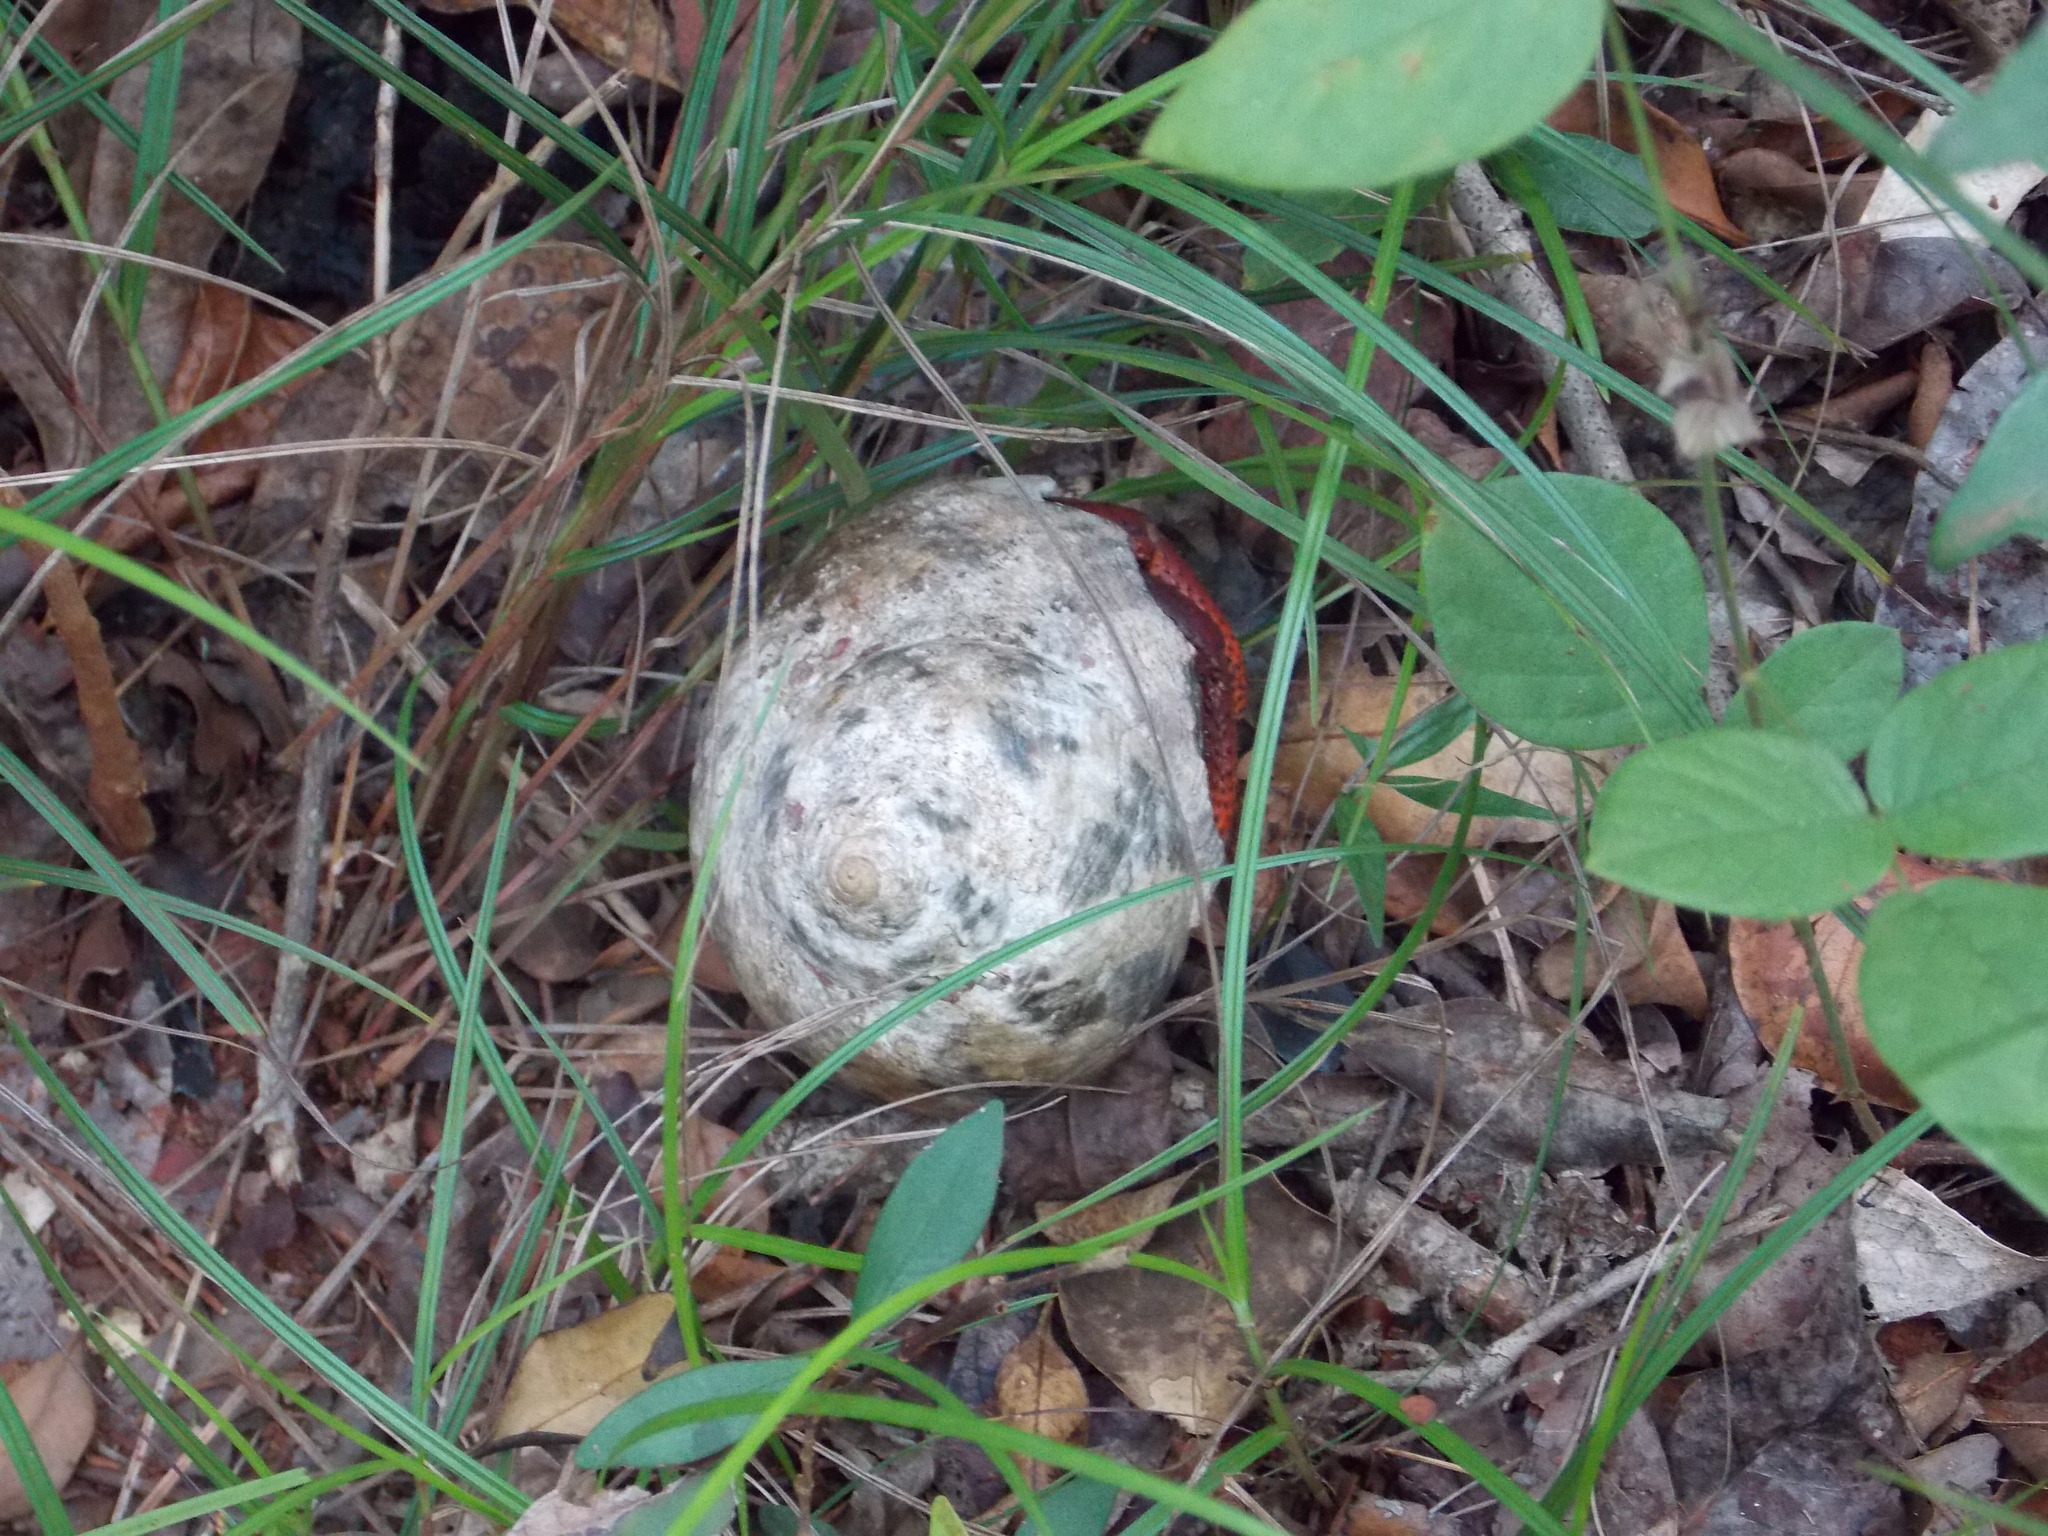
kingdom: Animalia
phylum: Arthropoda
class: Malacostraca
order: Decapoda
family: Coenobitidae
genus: Coenobita
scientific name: Coenobita clypeatus
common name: Caribbean hermit crab
